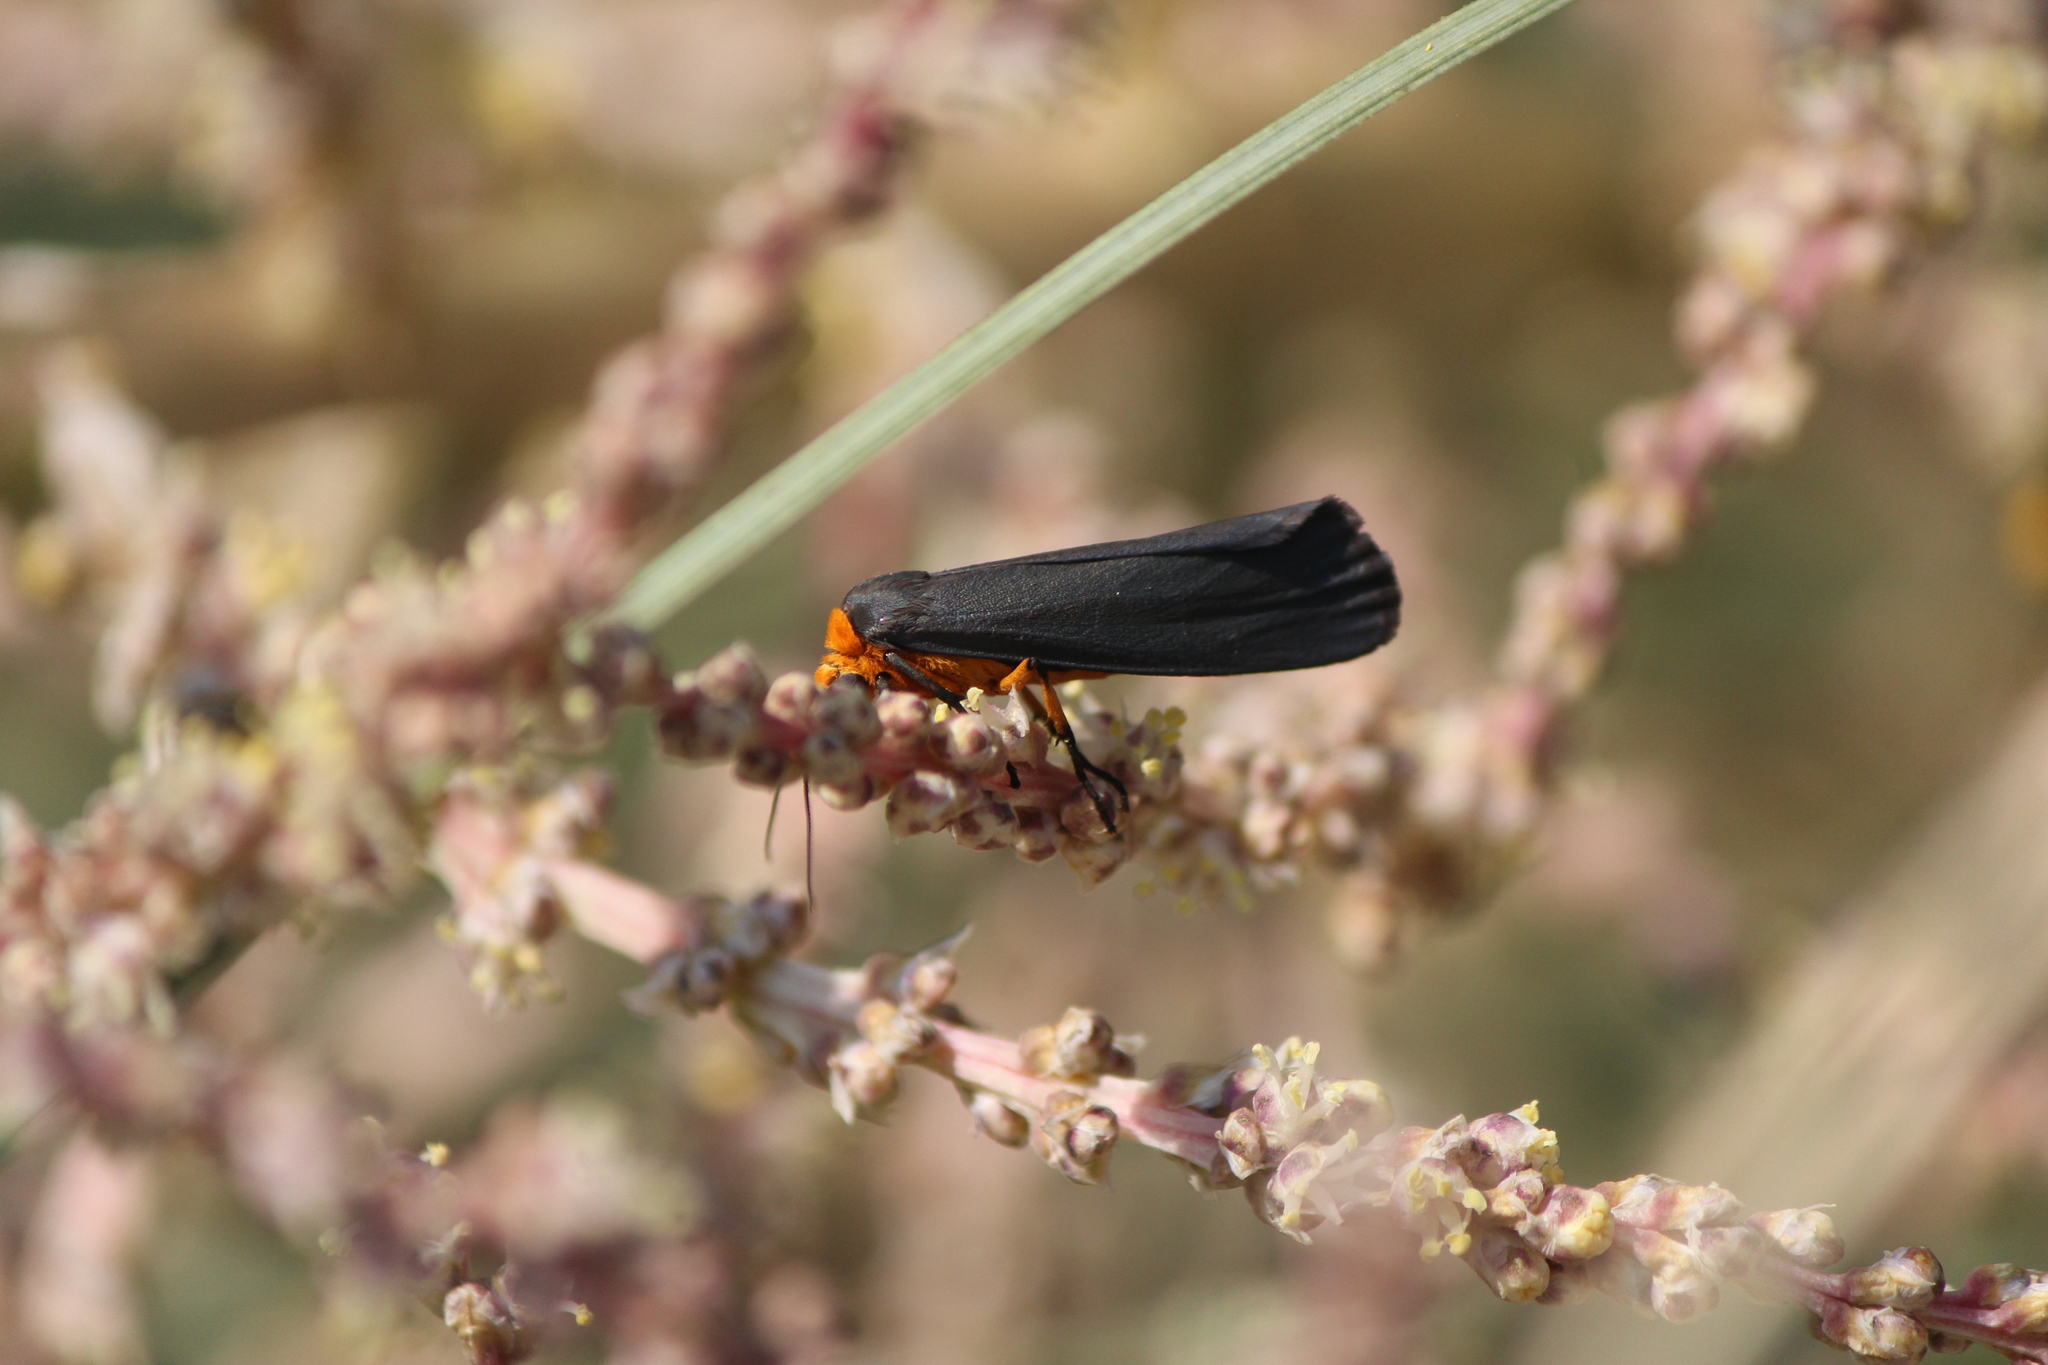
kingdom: Animalia
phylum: Arthropoda
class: Insecta
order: Lepidoptera
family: Erebidae
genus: Gnamptonychia
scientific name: Gnamptonychia ventralis
